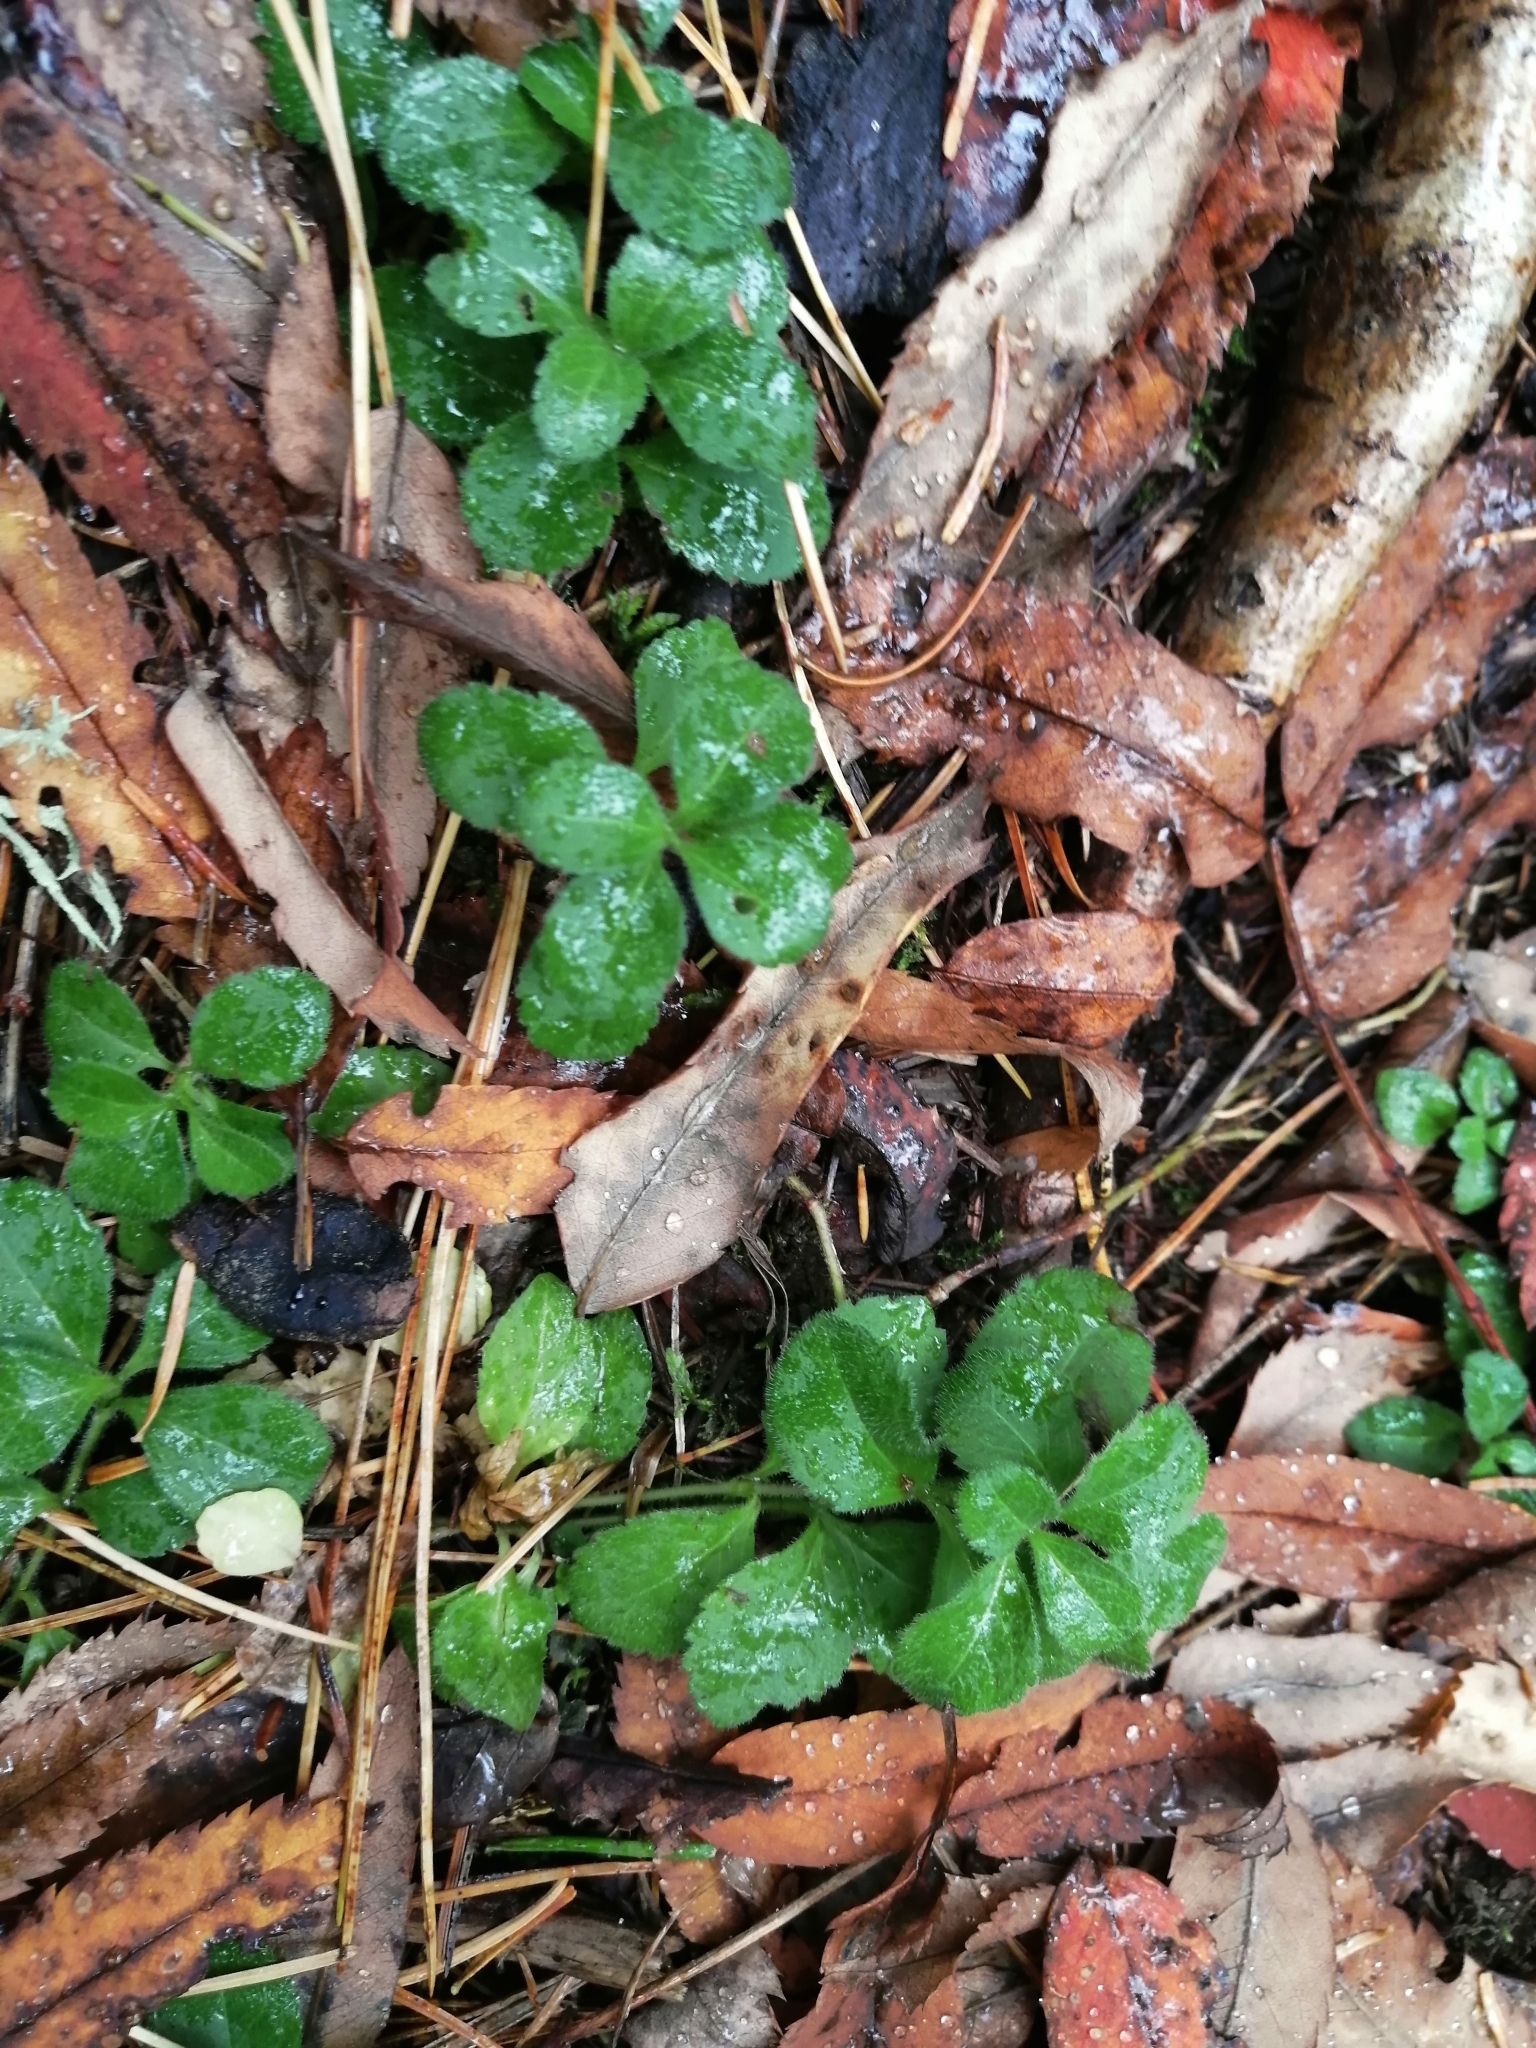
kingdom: Plantae
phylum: Tracheophyta
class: Magnoliopsida
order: Lamiales
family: Plantaginaceae
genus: Veronica
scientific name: Veronica officinalis
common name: Common speedwell
